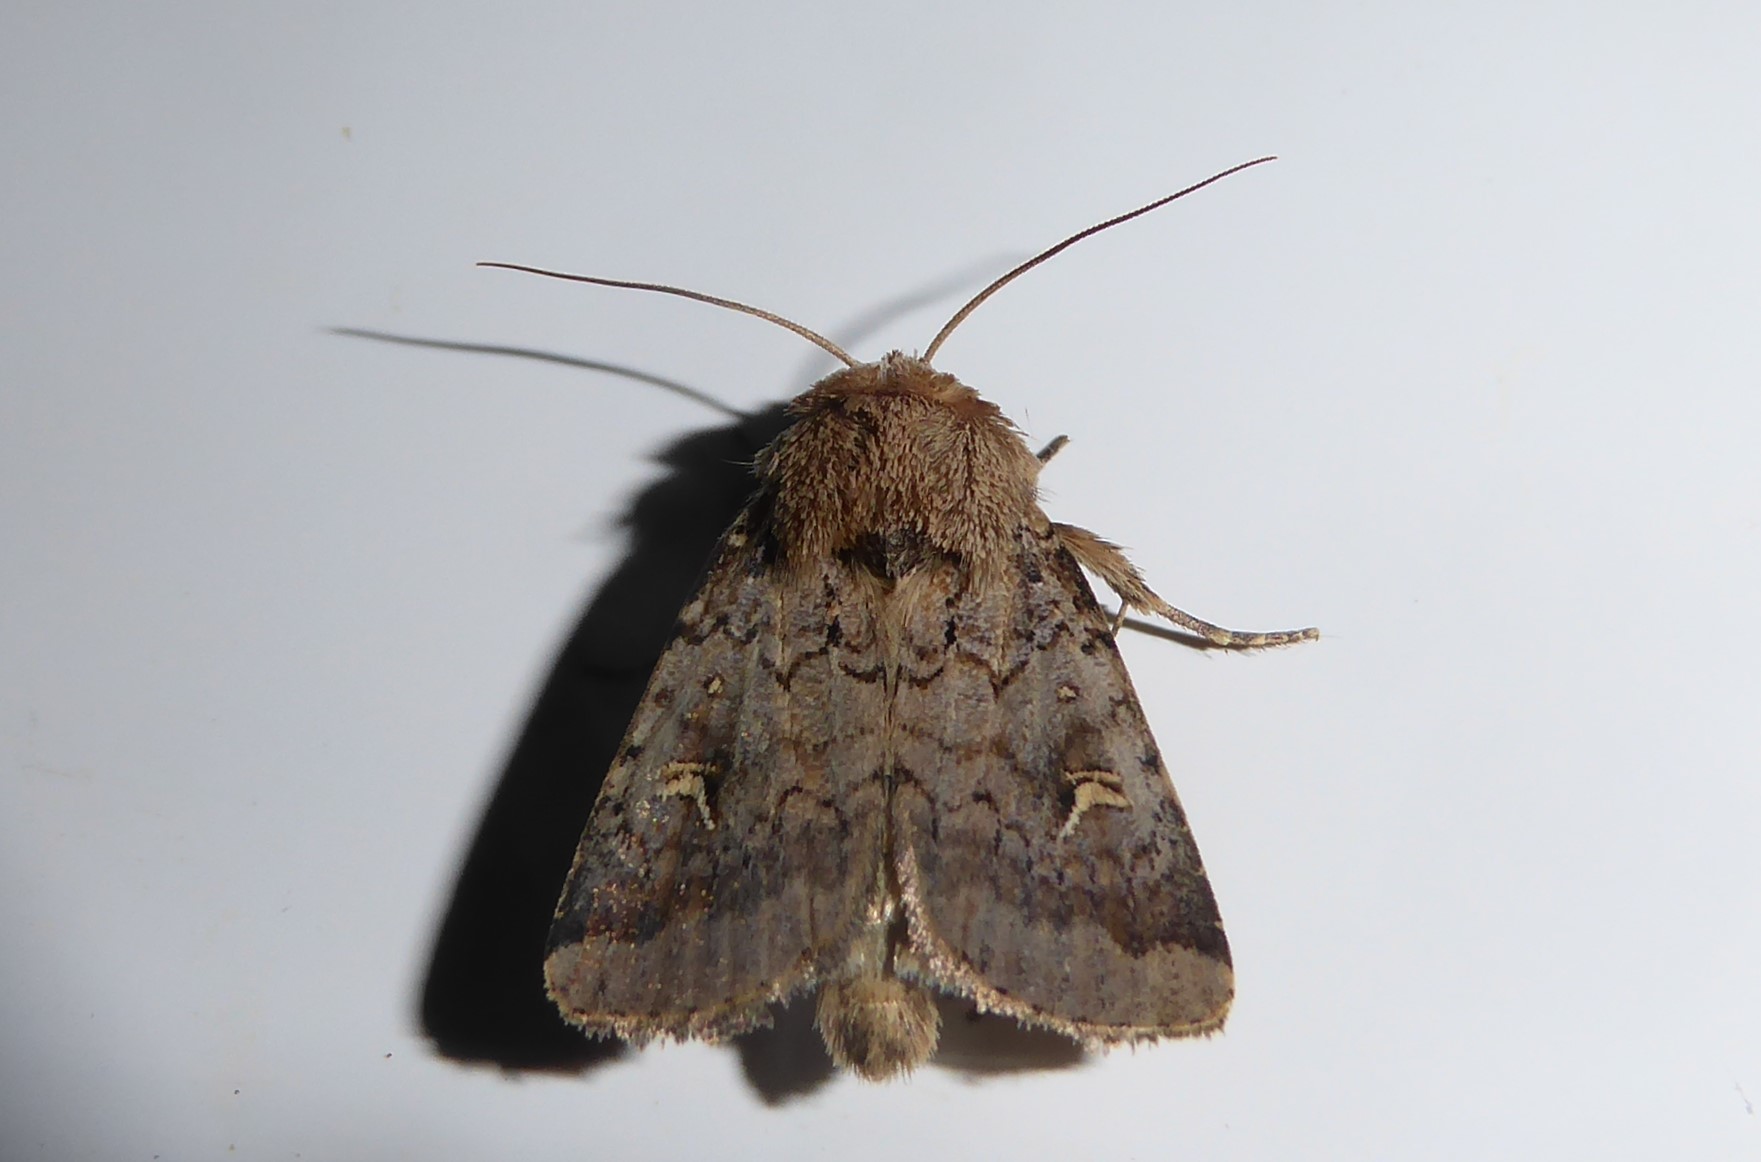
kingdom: Animalia
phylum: Arthropoda
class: Insecta
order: Lepidoptera
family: Noctuidae
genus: Proteuxoa
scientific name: Proteuxoa tetronycha
